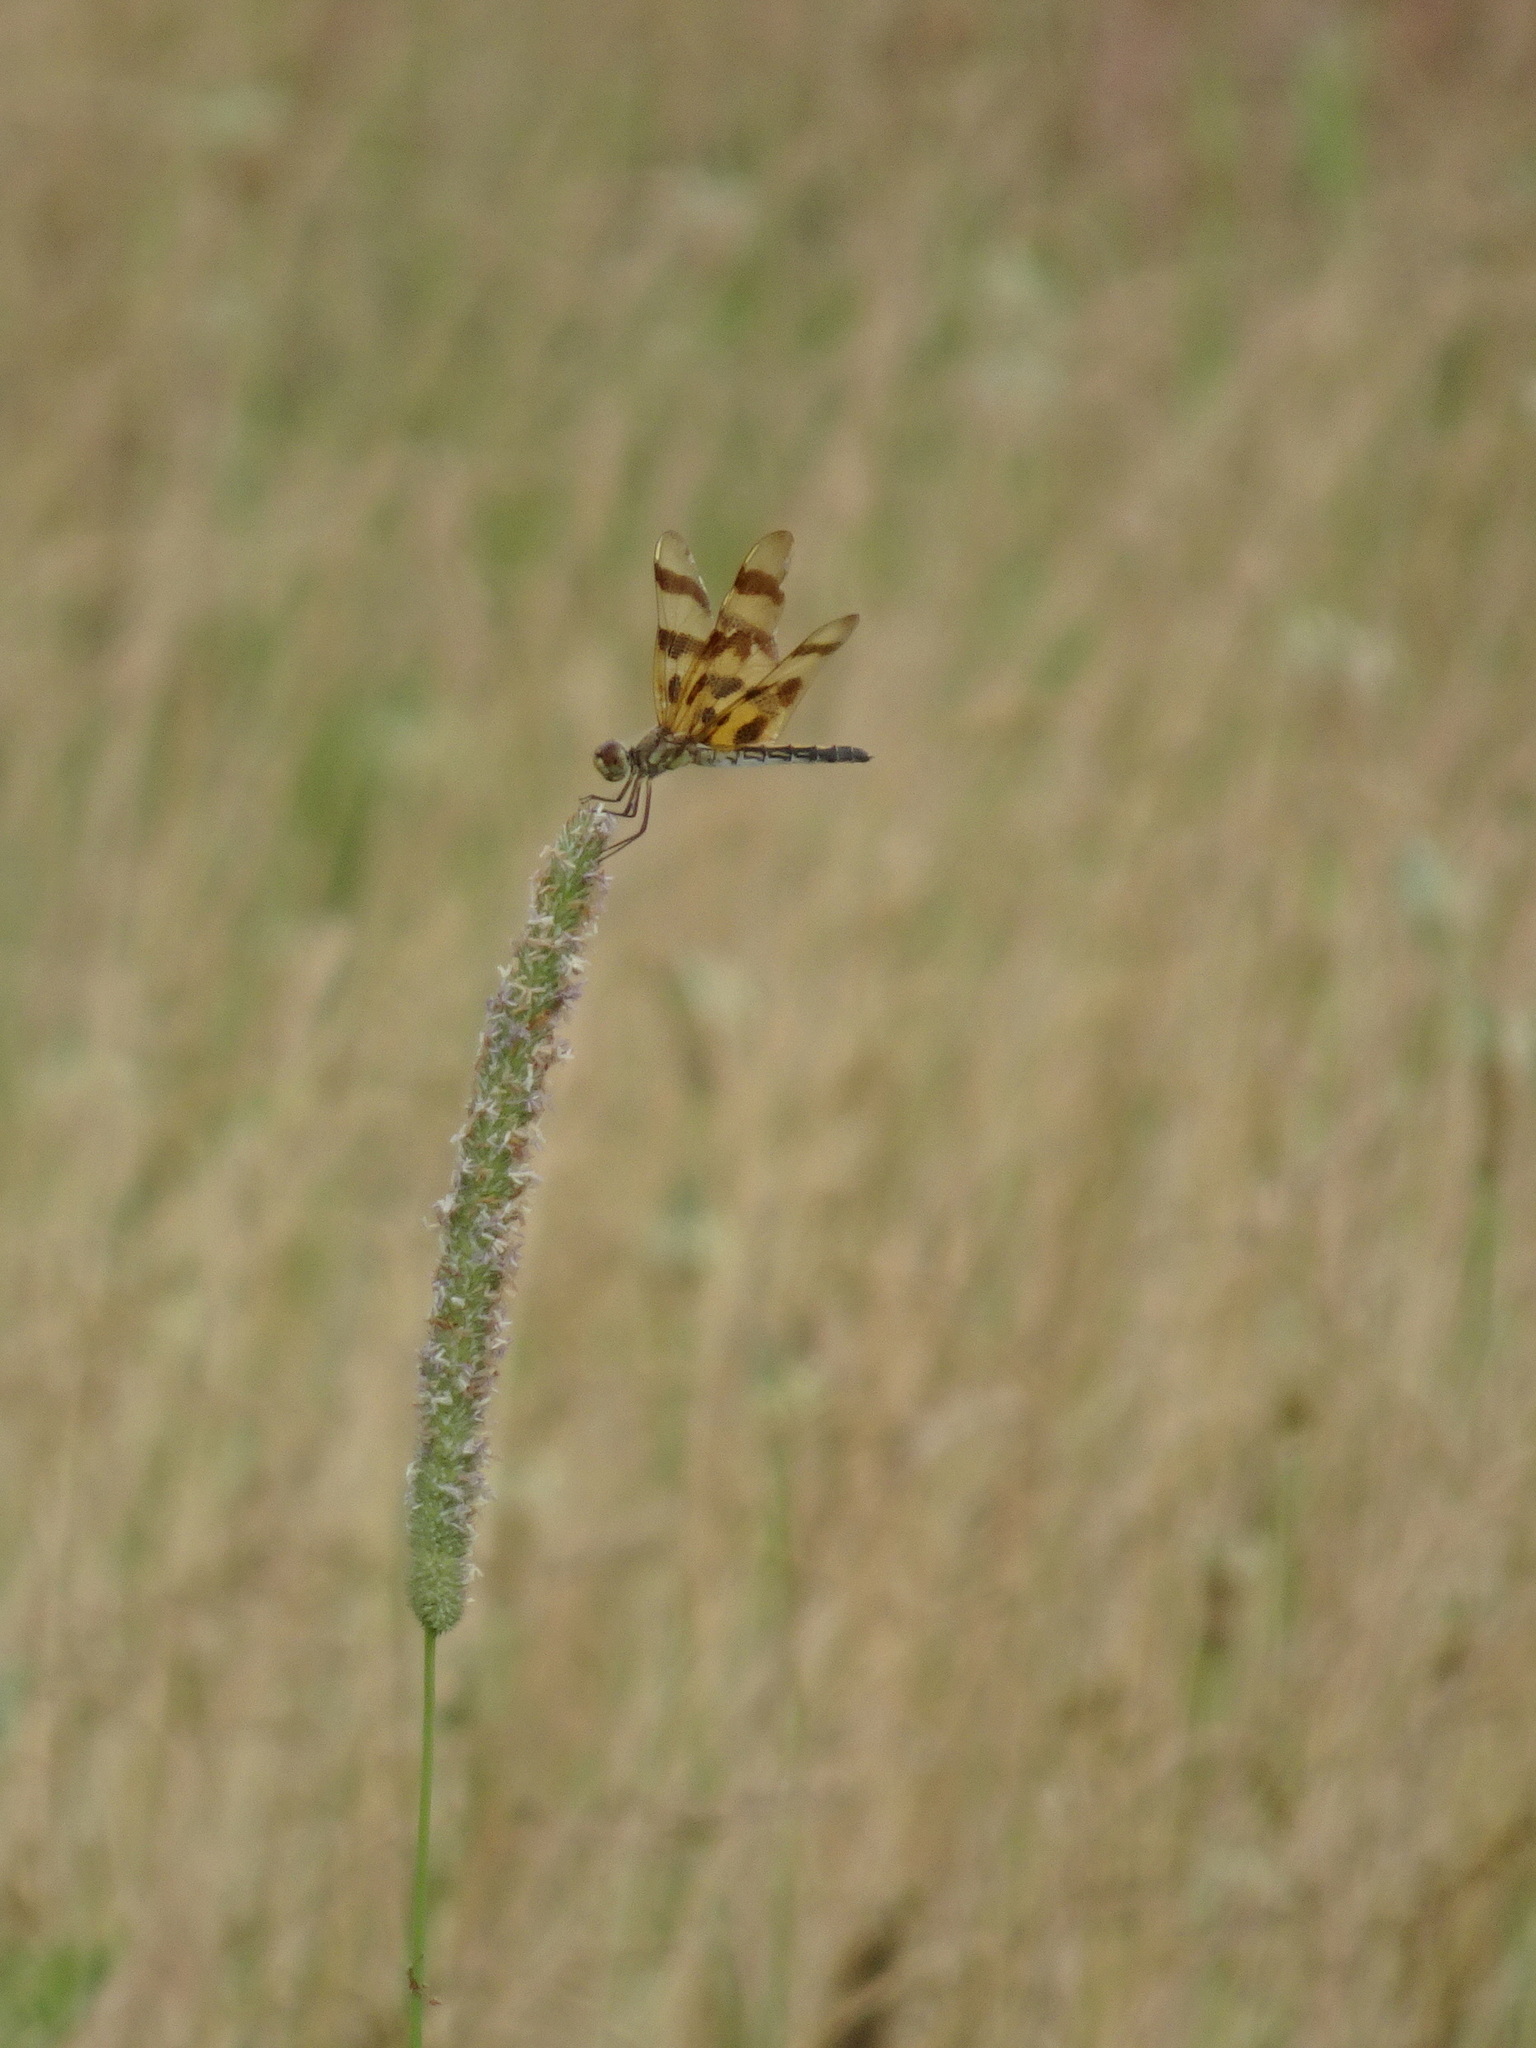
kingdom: Animalia
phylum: Arthropoda
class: Insecta
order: Odonata
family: Libellulidae
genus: Celithemis
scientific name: Celithemis eponina
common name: Halloween pennant
